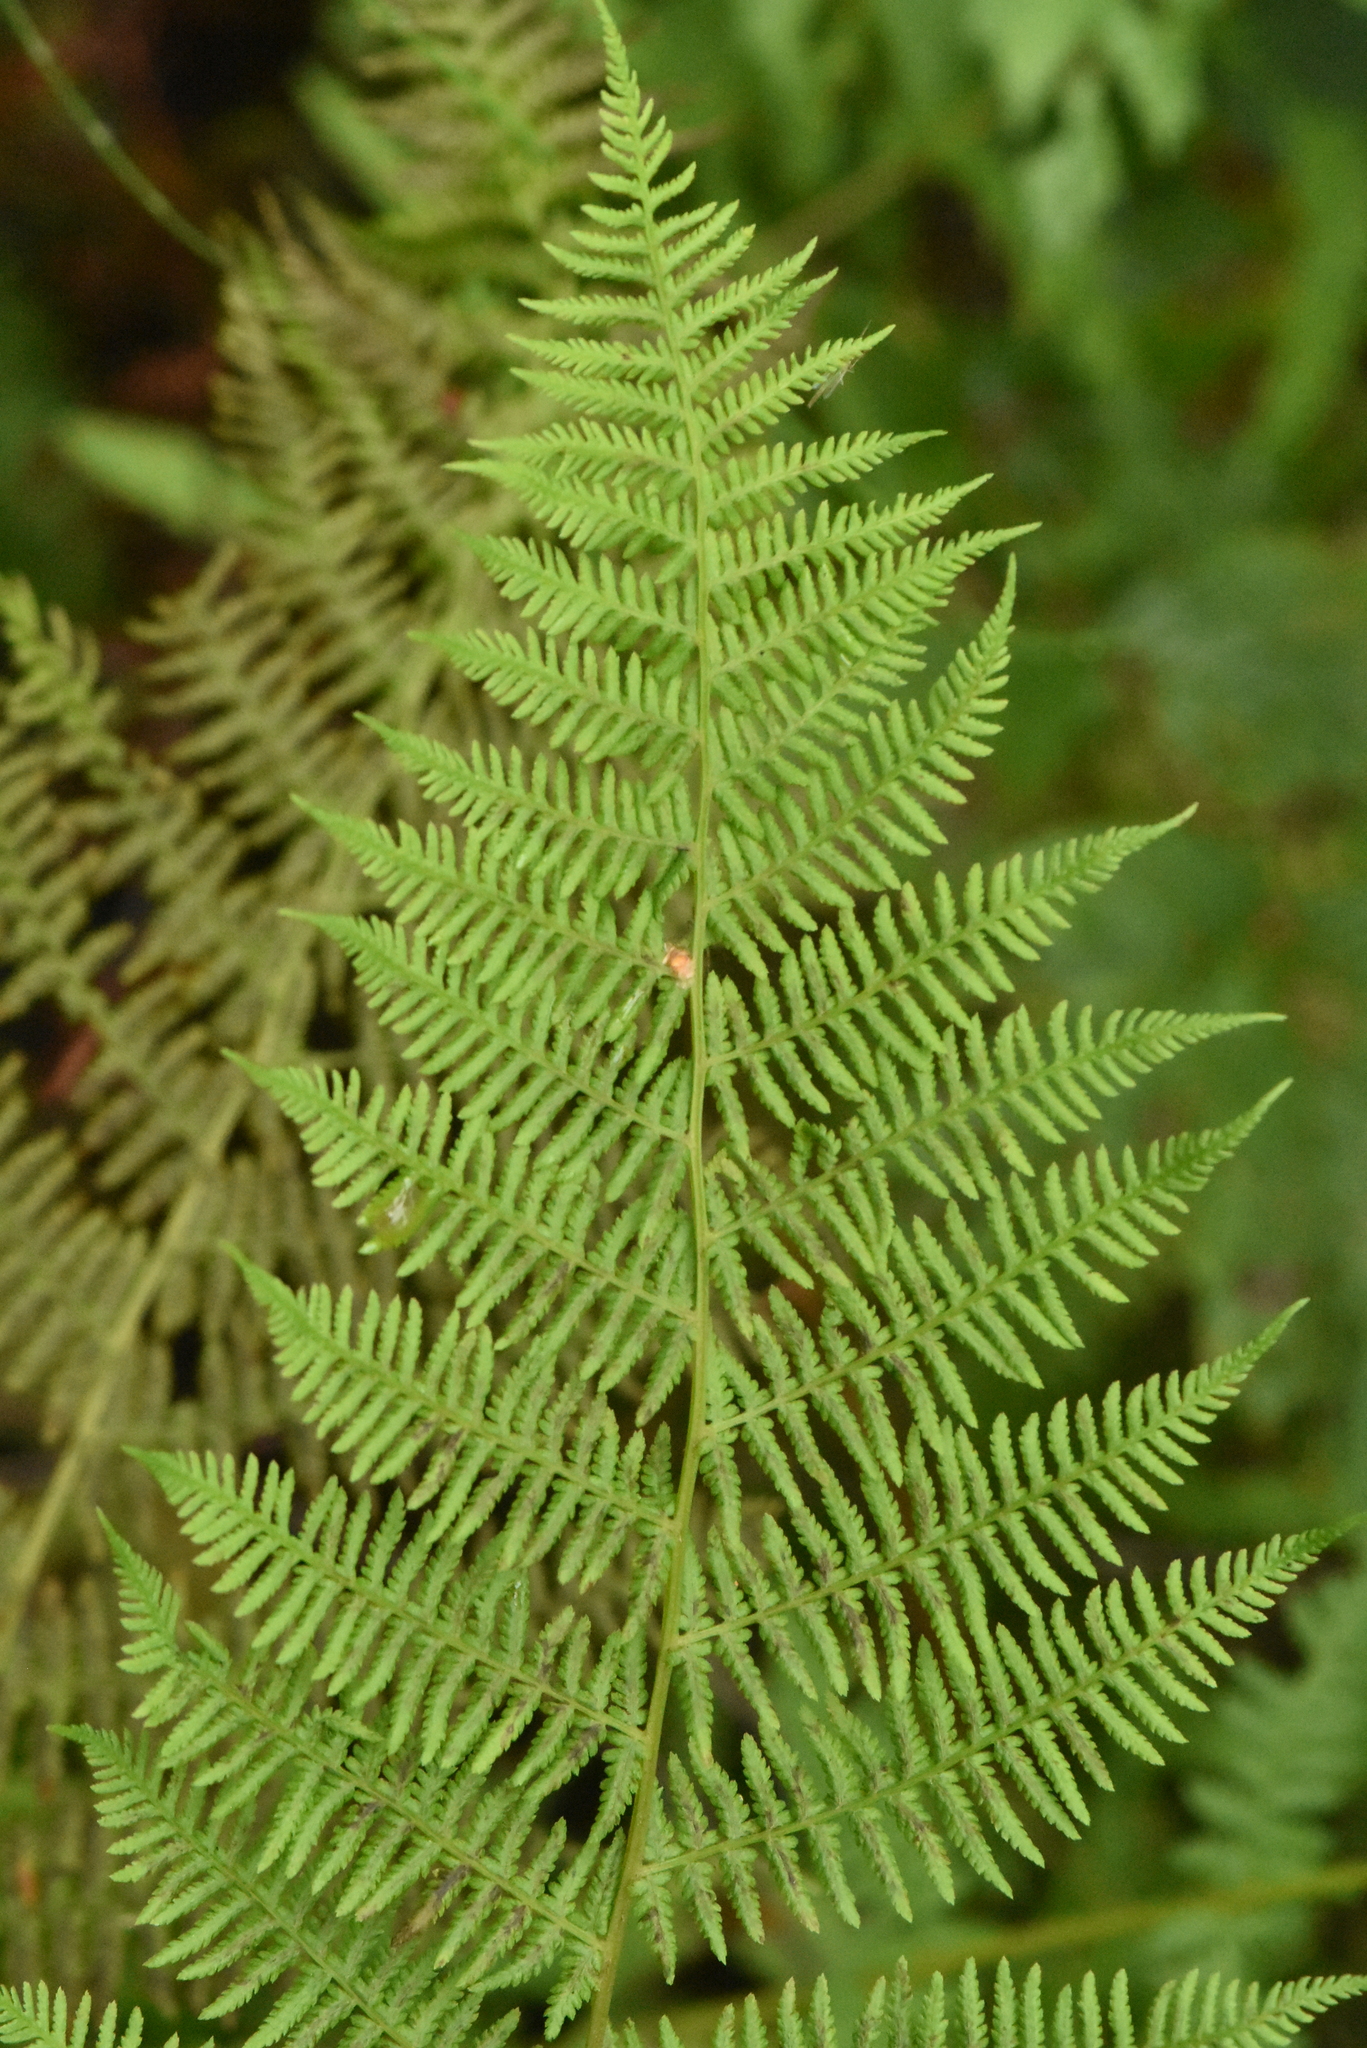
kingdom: Plantae
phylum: Tracheophyta
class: Polypodiopsida
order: Polypodiales
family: Athyriaceae
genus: Athyrium
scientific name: Athyrium filix-femina
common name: Lady fern
